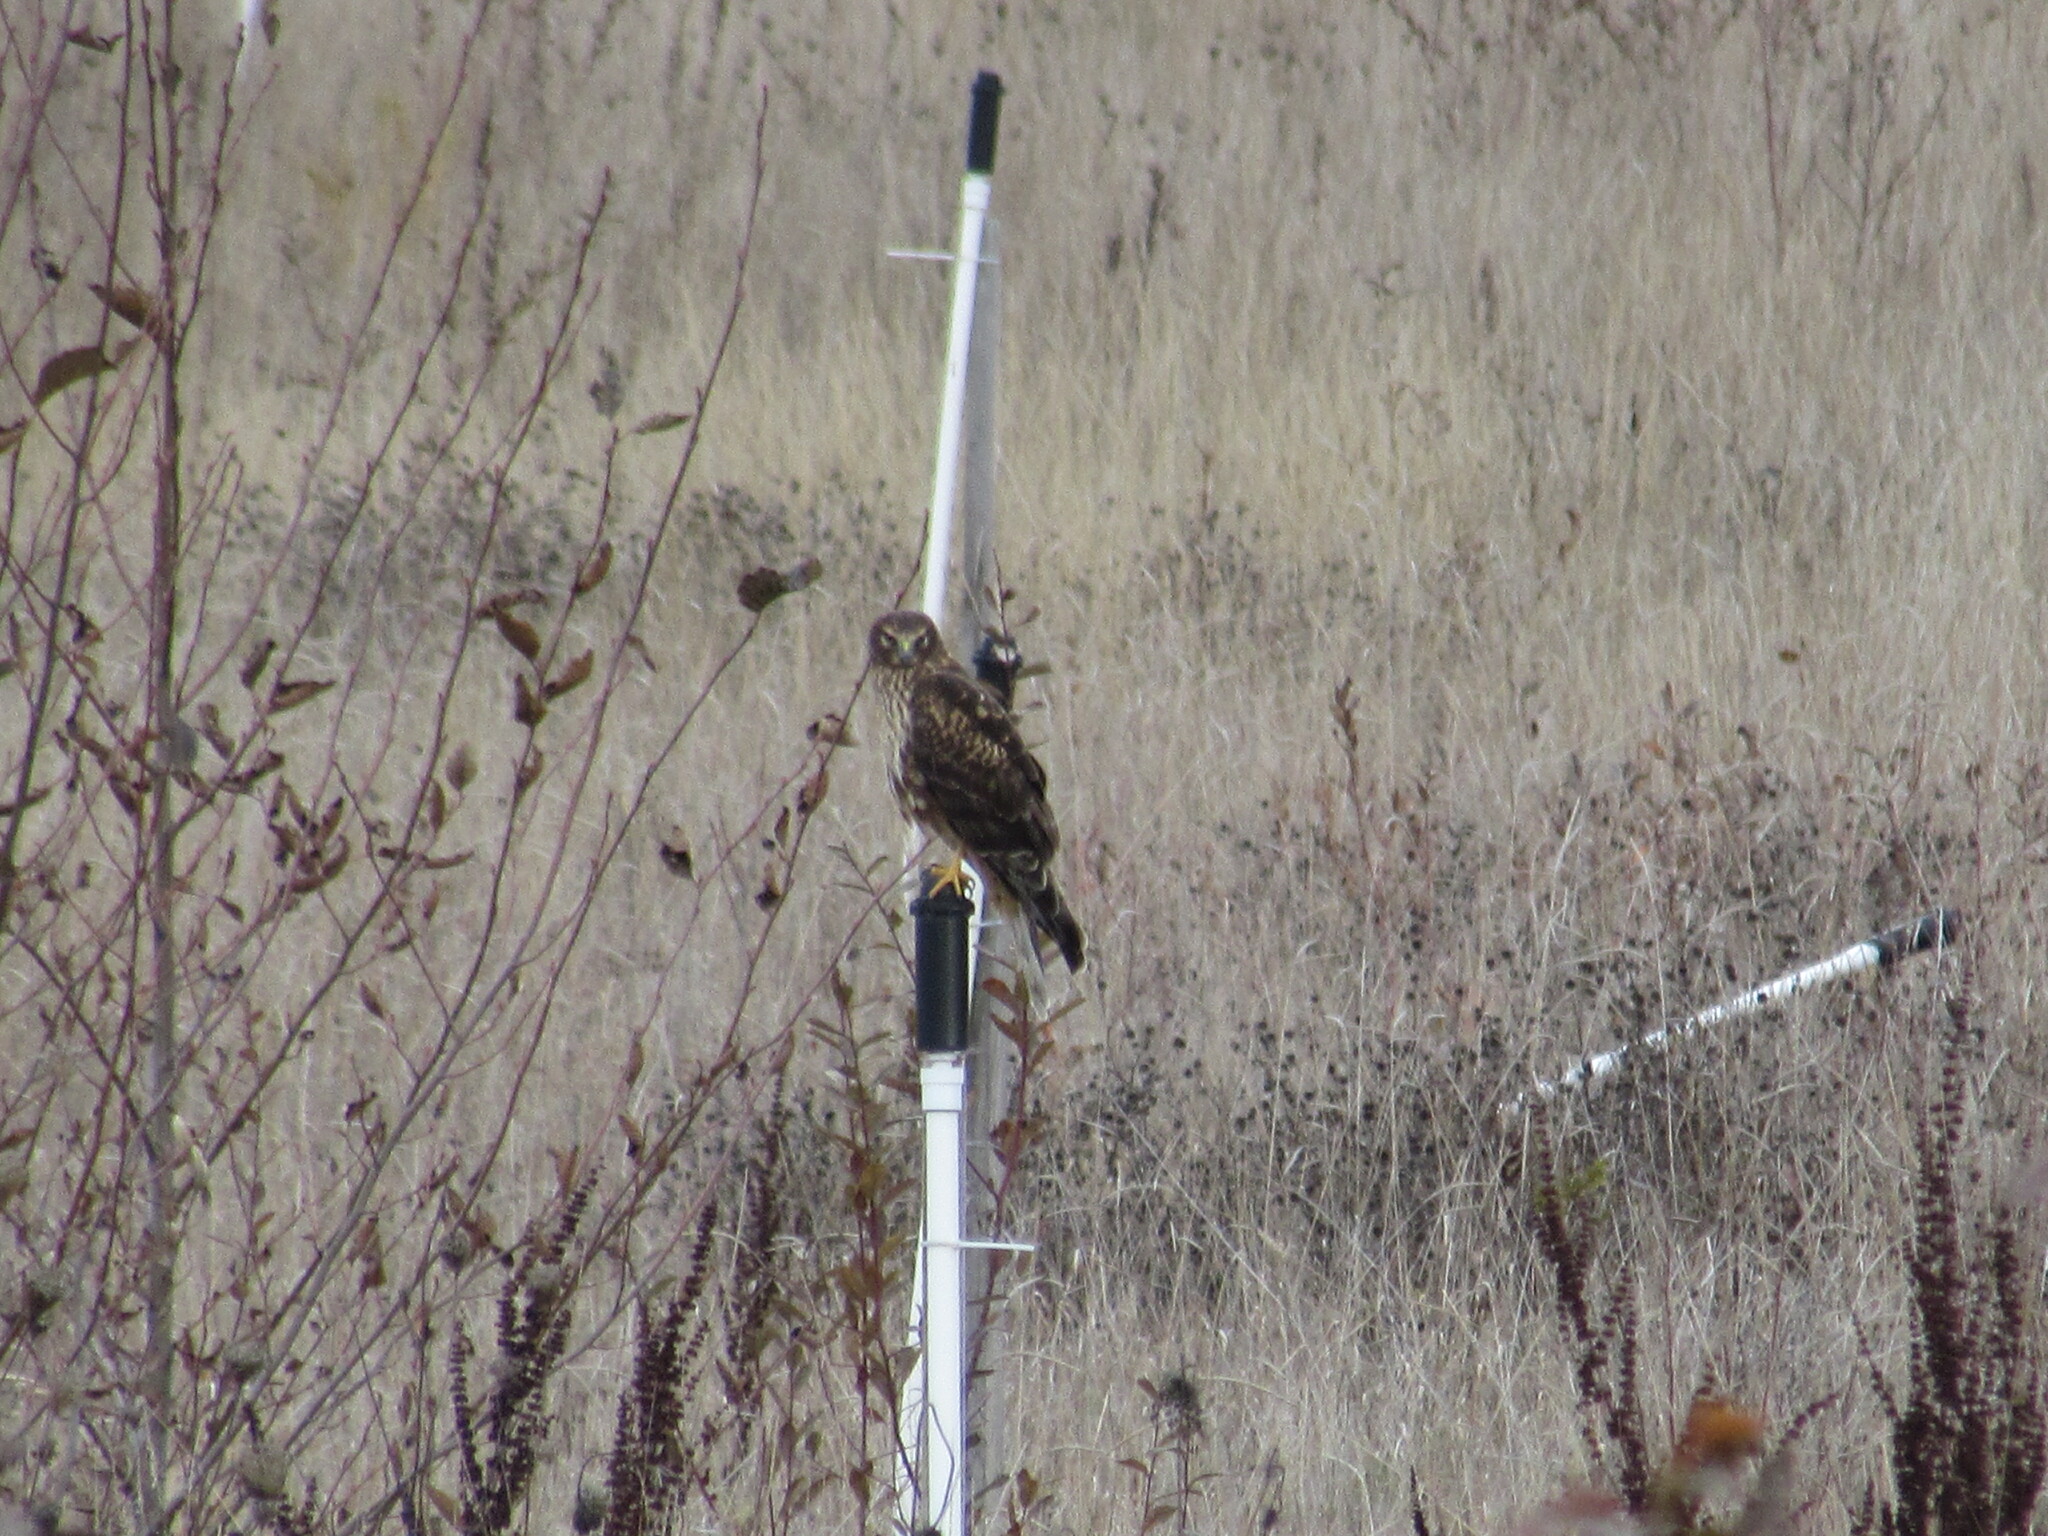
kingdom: Animalia
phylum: Chordata
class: Aves
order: Accipitriformes
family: Accipitridae
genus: Circus
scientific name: Circus cyaneus
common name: Hen harrier
